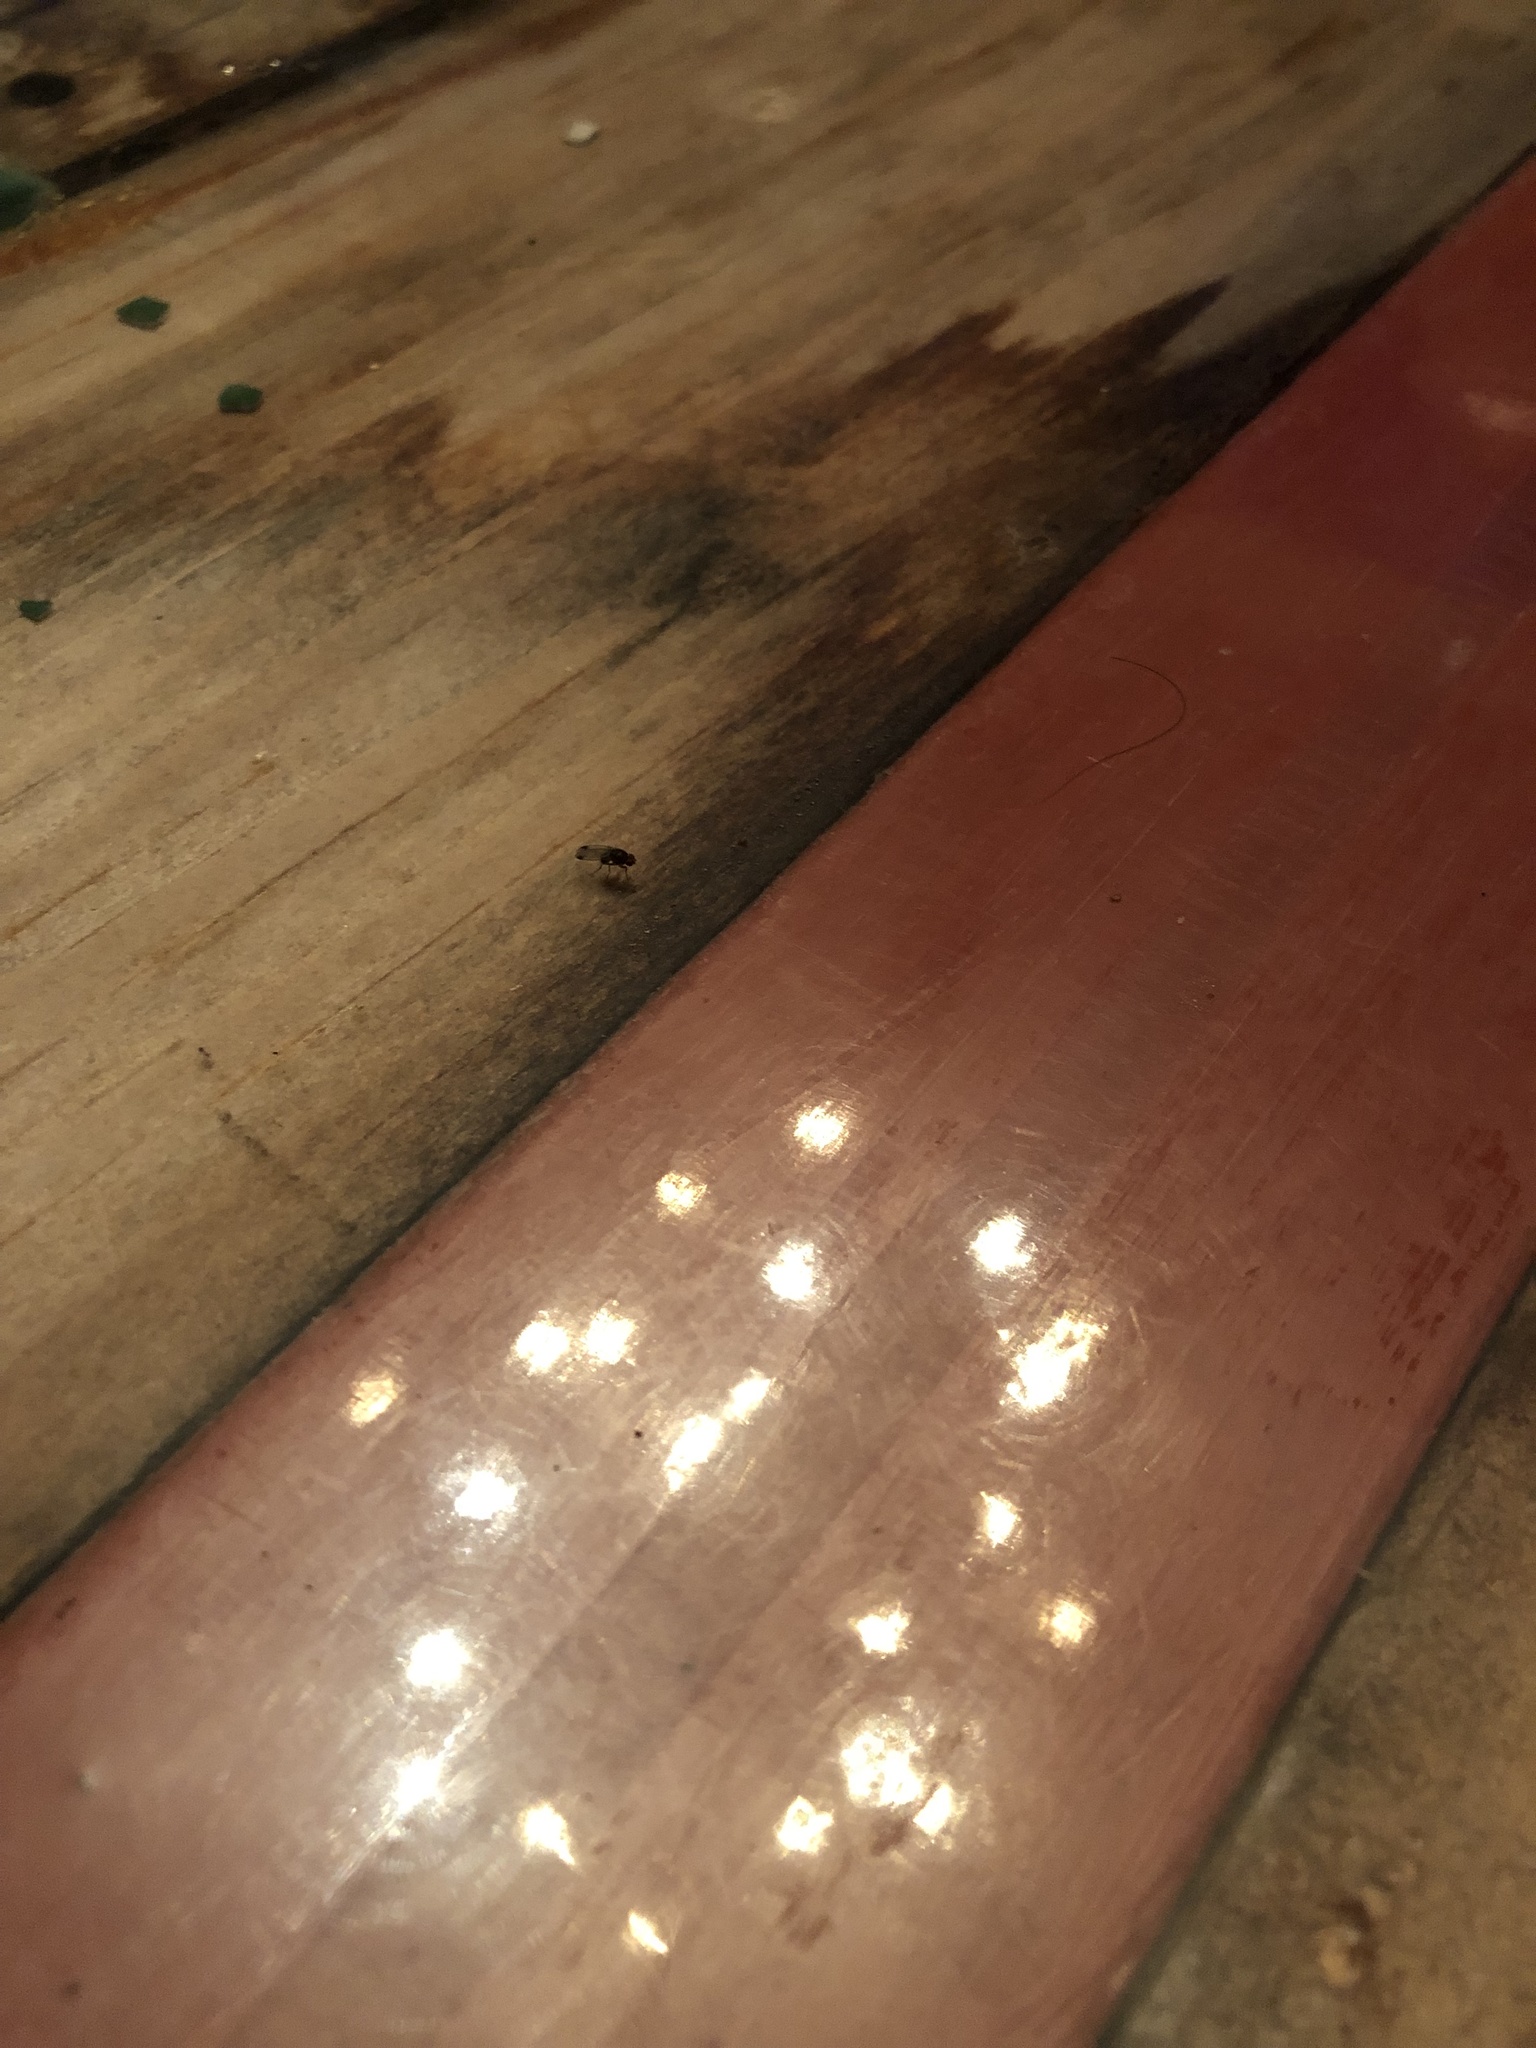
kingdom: Animalia
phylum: Arthropoda
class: Insecta
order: Diptera
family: Drosophilidae
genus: Drosophila
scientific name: Drosophila suzukii
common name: Spotted-wing drosophila
